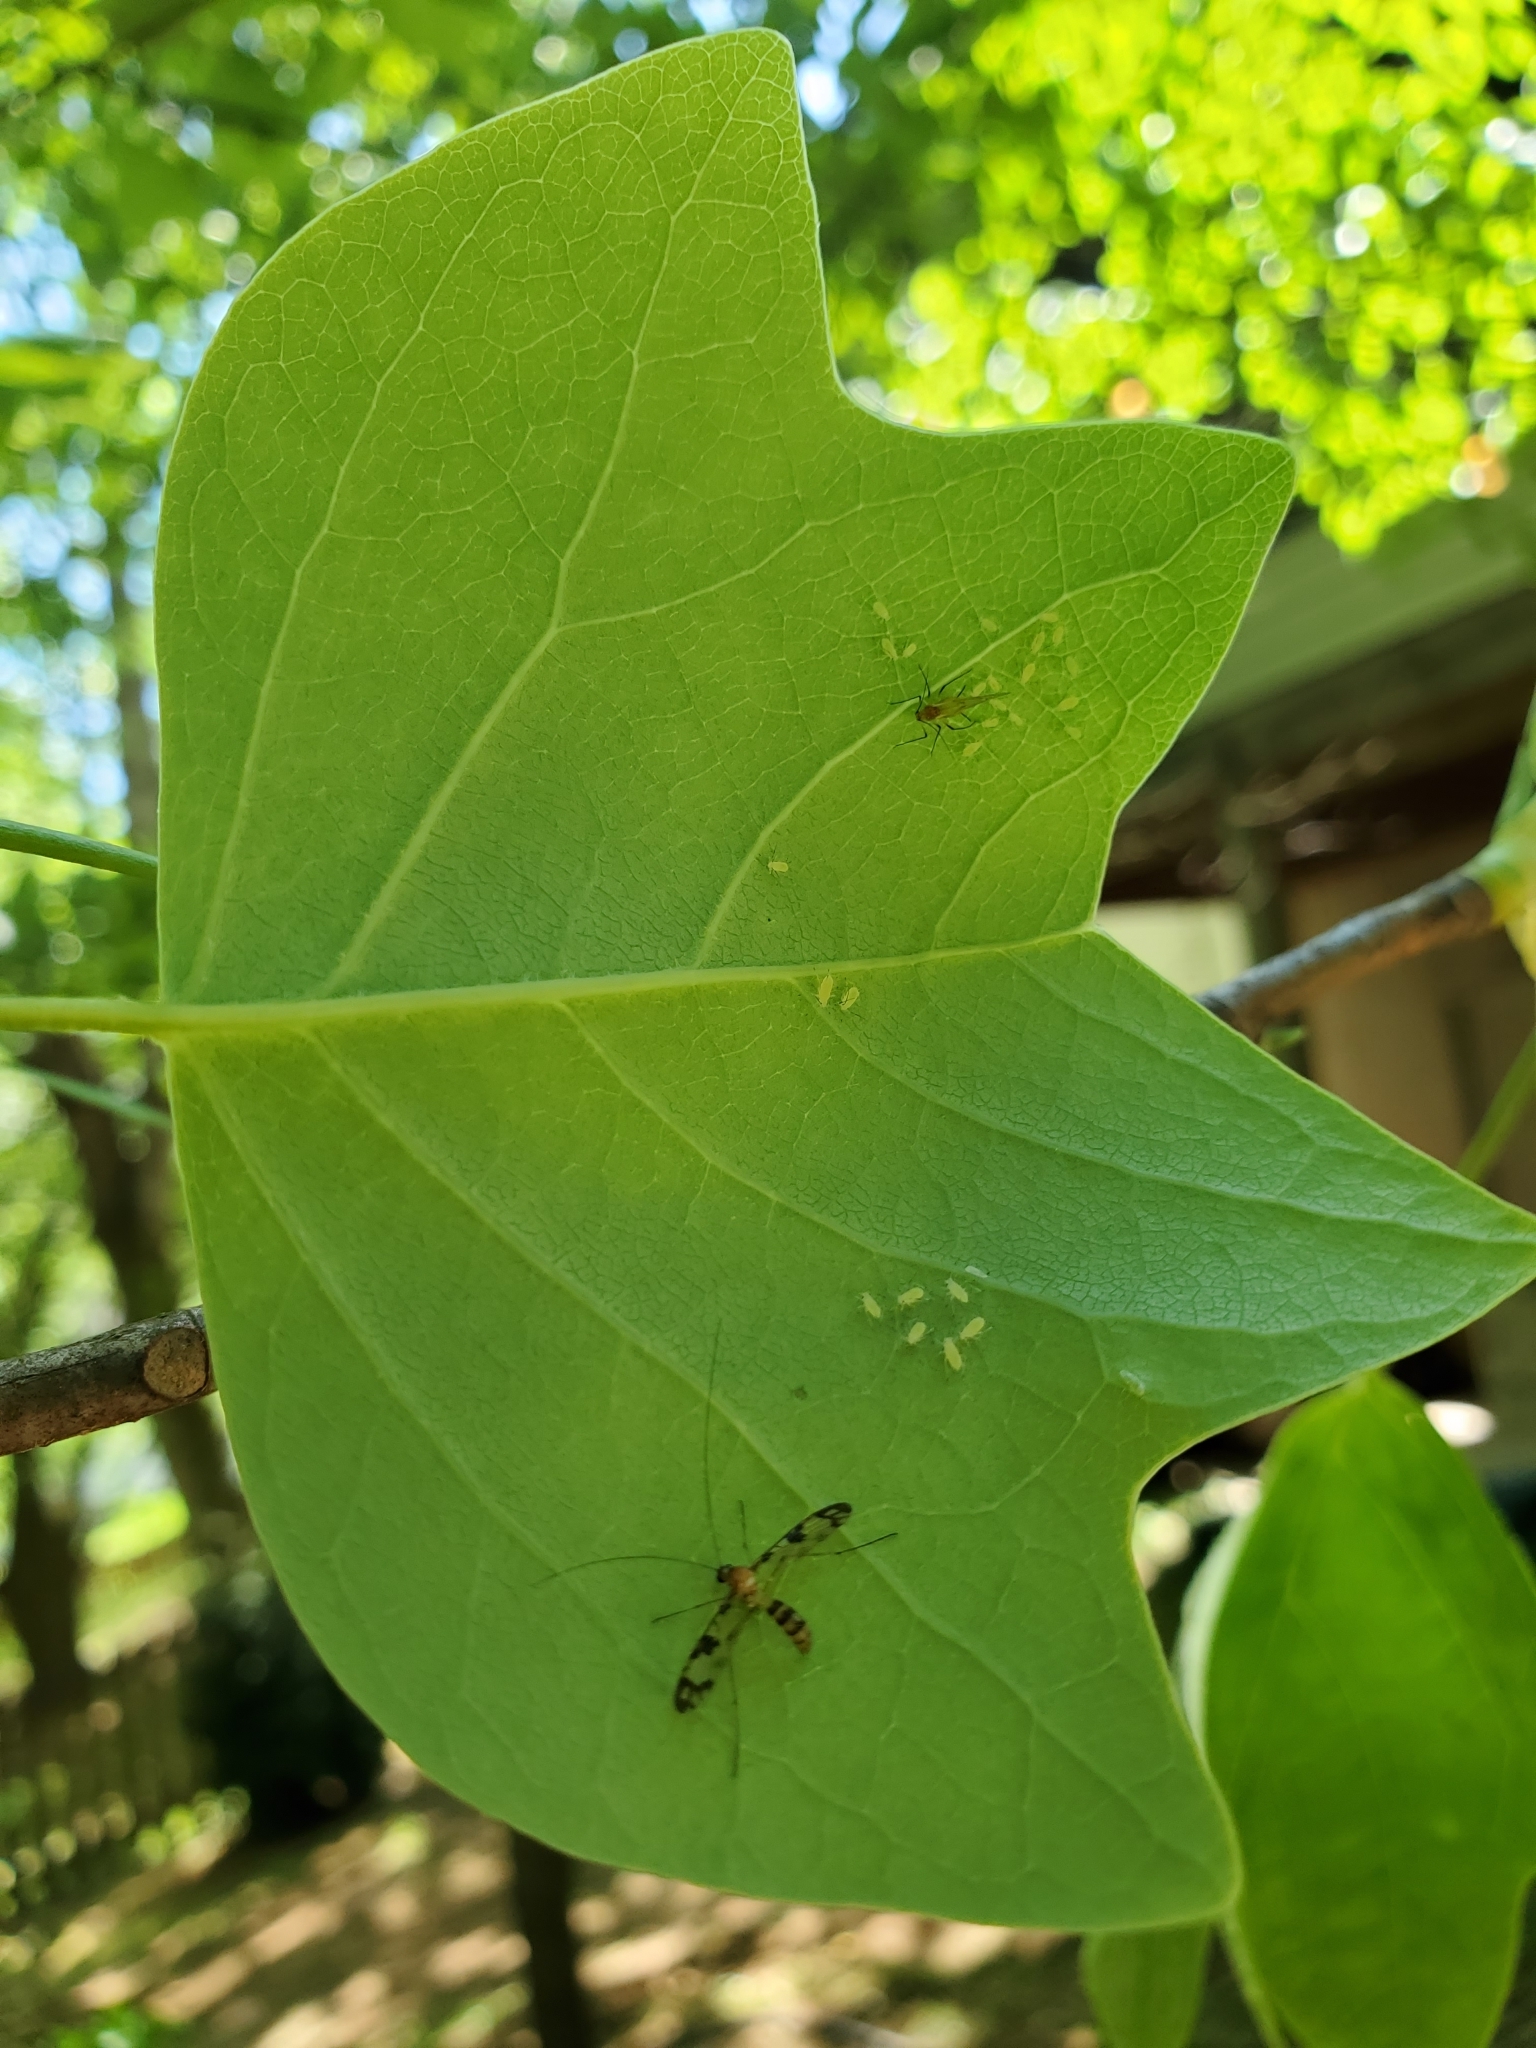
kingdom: Animalia
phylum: Arthropoda
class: Insecta
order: Diptera
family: Keroplatidae
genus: Macrocera
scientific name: Macrocera formosa
